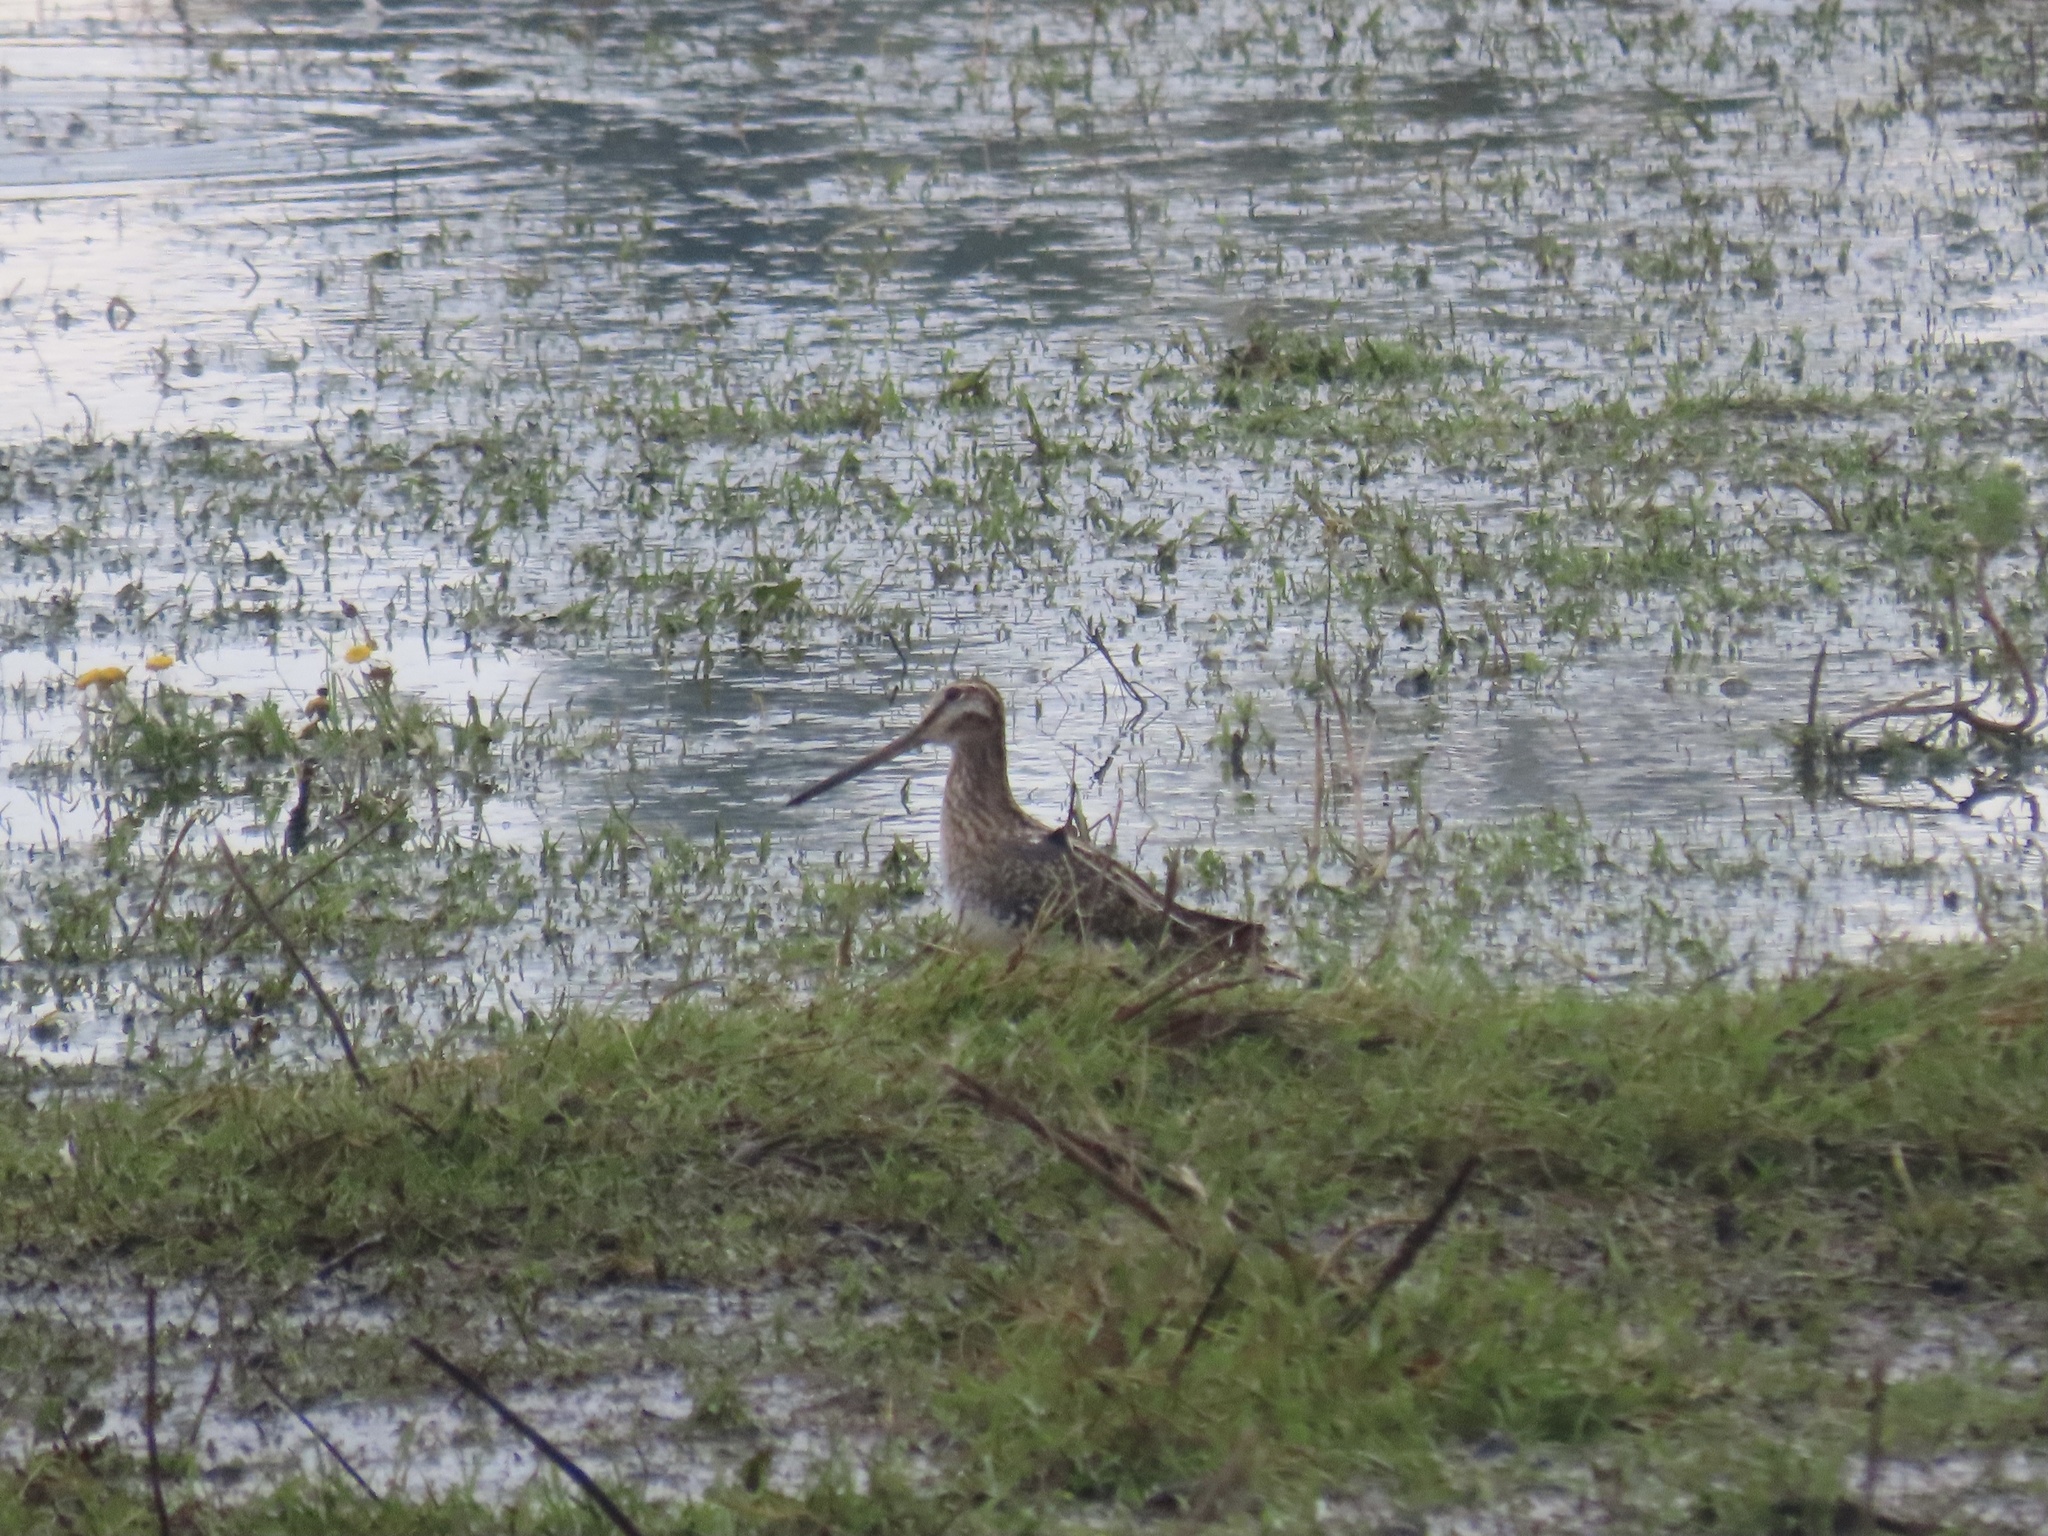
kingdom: Animalia
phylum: Chordata
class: Aves
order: Charadriiformes
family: Scolopacidae
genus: Gallinago
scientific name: Gallinago delicata
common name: Wilson's snipe
